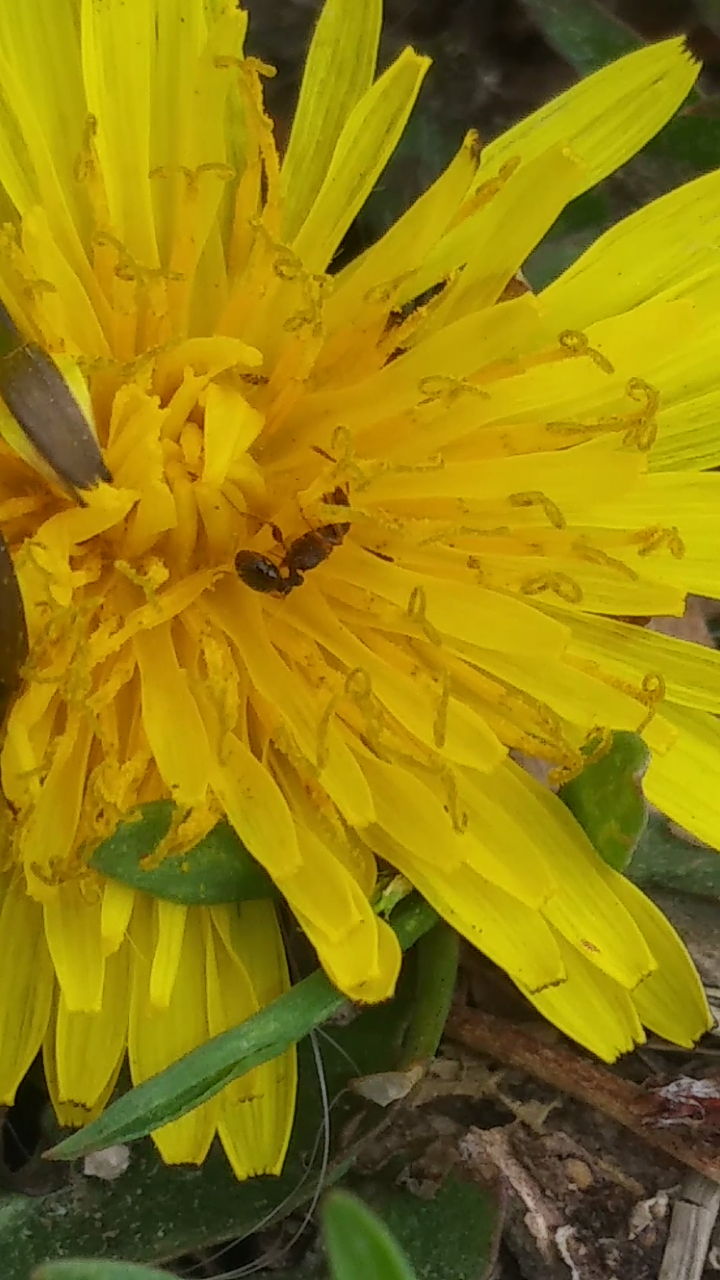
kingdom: Animalia
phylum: Arthropoda
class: Insecta
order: Hymenoptera
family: Formicidae
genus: Tetramorium
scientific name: Tetramorium immigrans
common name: Pavement ant
